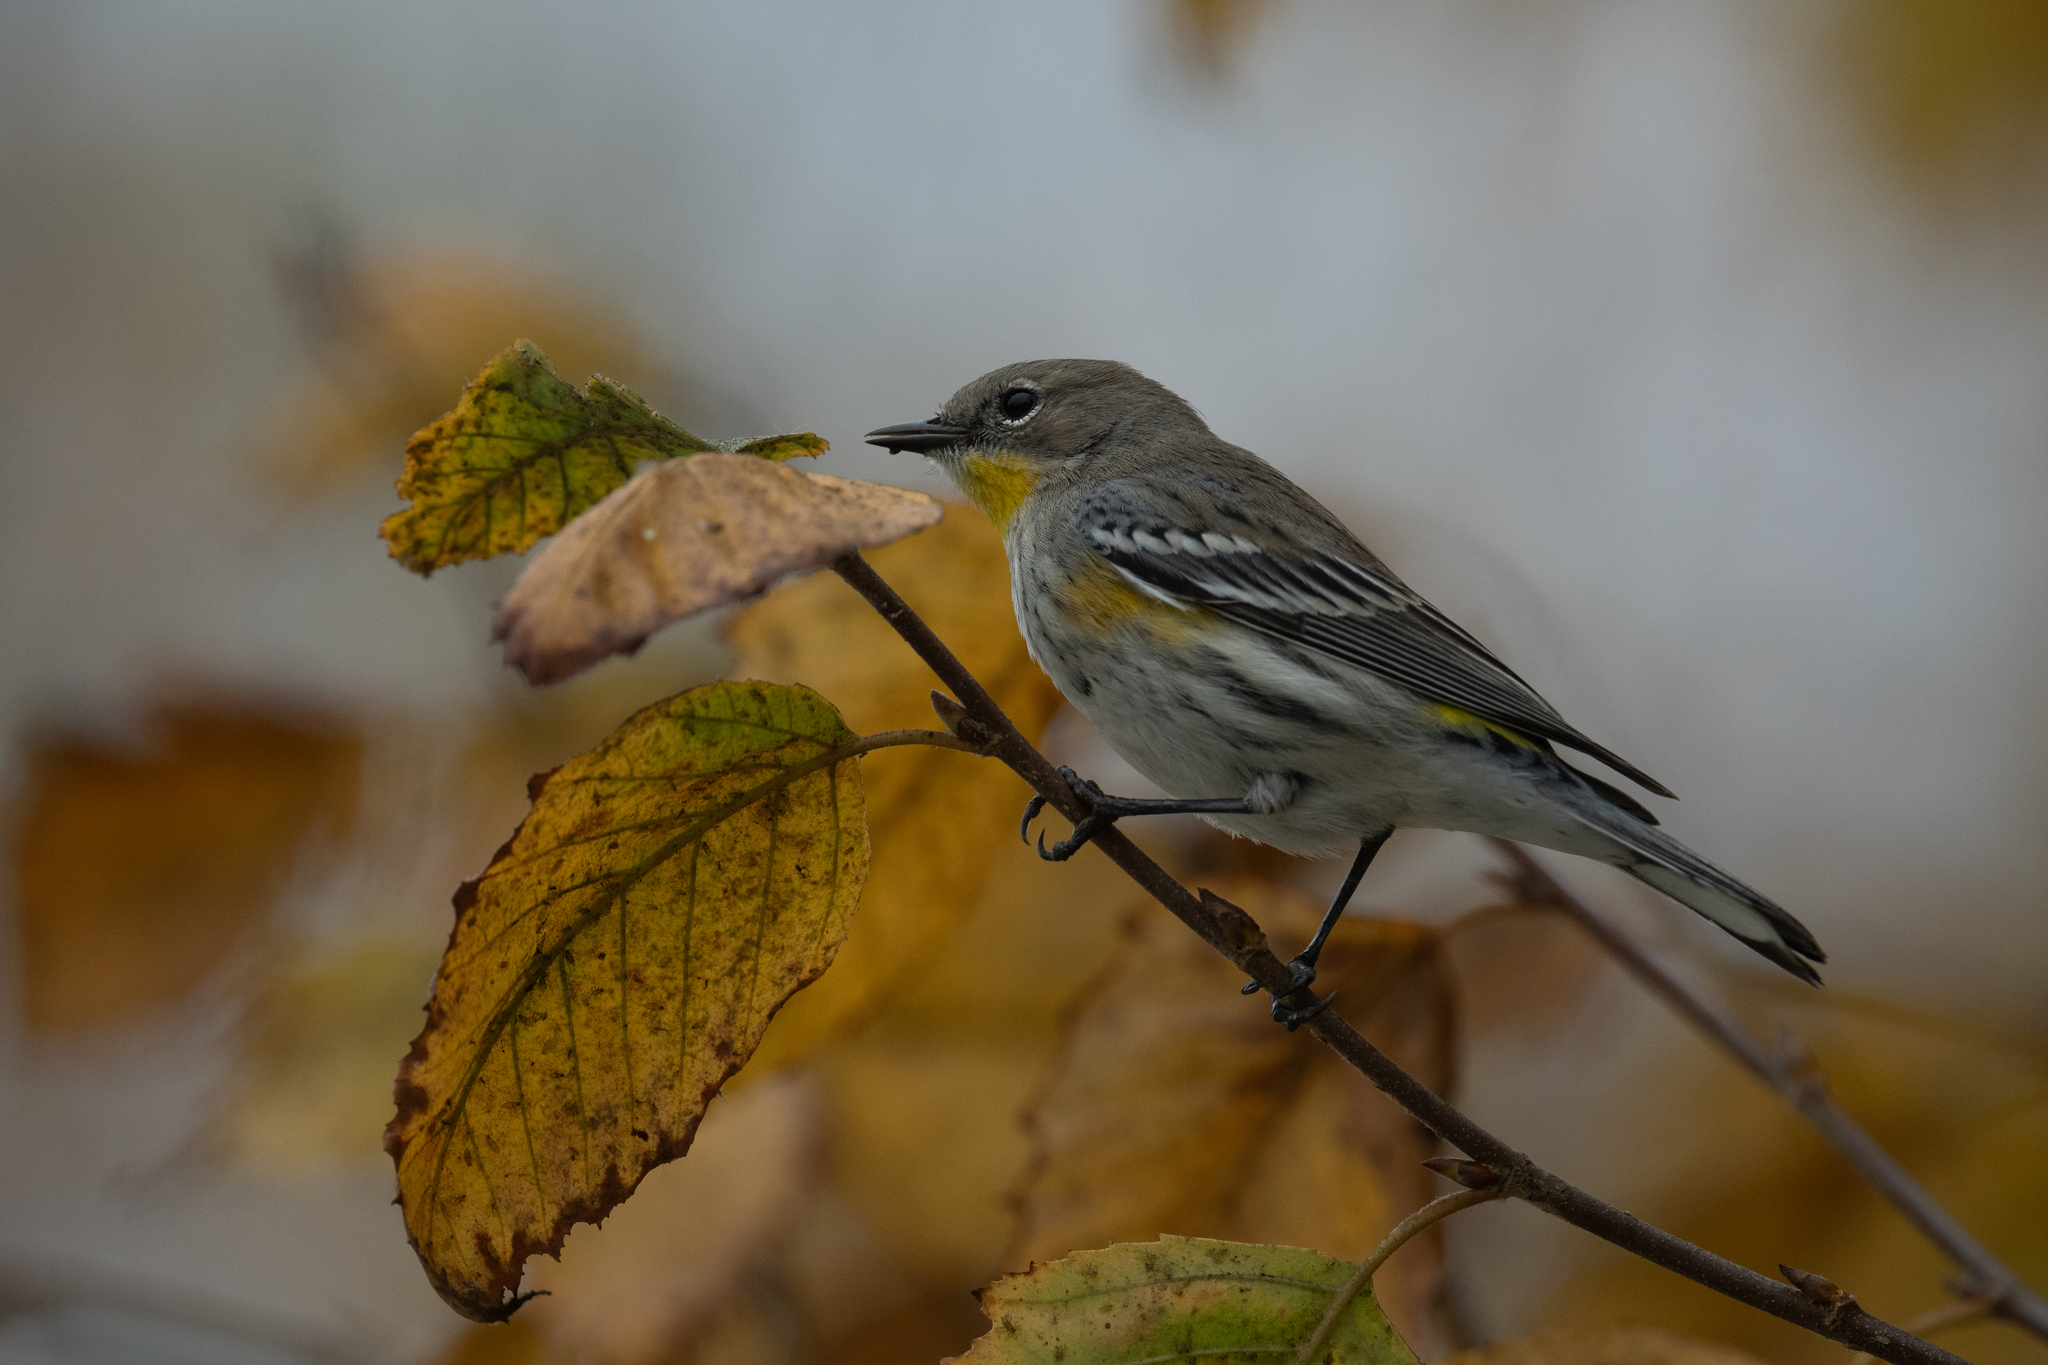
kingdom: Animalia
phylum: Chordata
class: Aves
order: Passeriformes
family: Parulidae
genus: Setophaga
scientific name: Setophaga coronata
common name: Myrtle warbler
